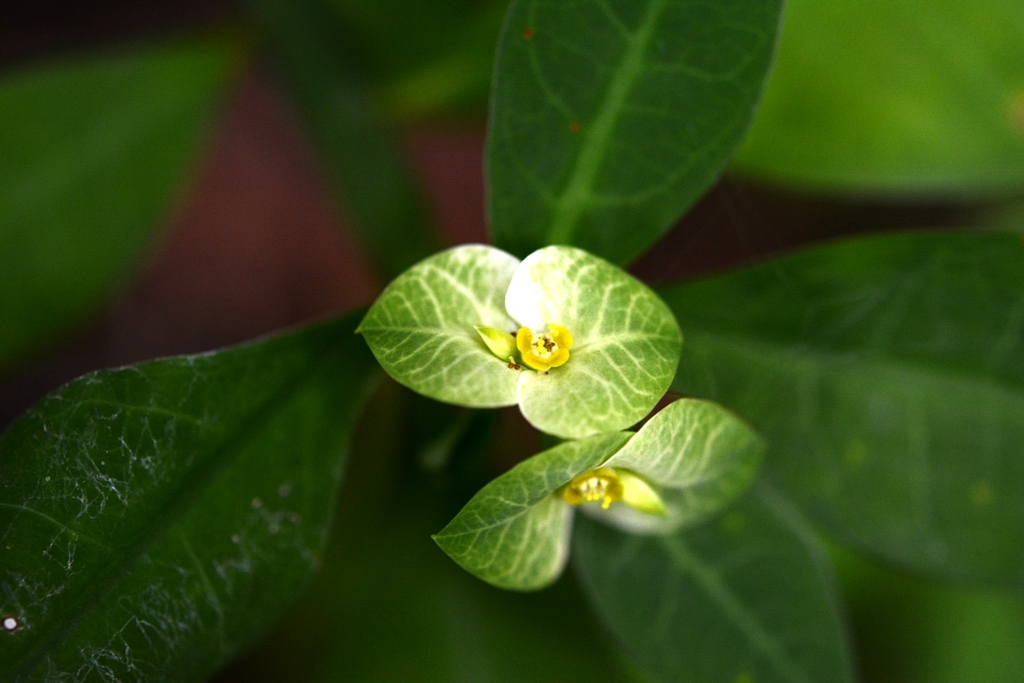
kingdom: Plantae
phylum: Tracheophyta
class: Magnoliopsida
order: Malpighiales
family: Euphorbiaceae
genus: Euphorbia
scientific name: Euphorbia pteroneura
